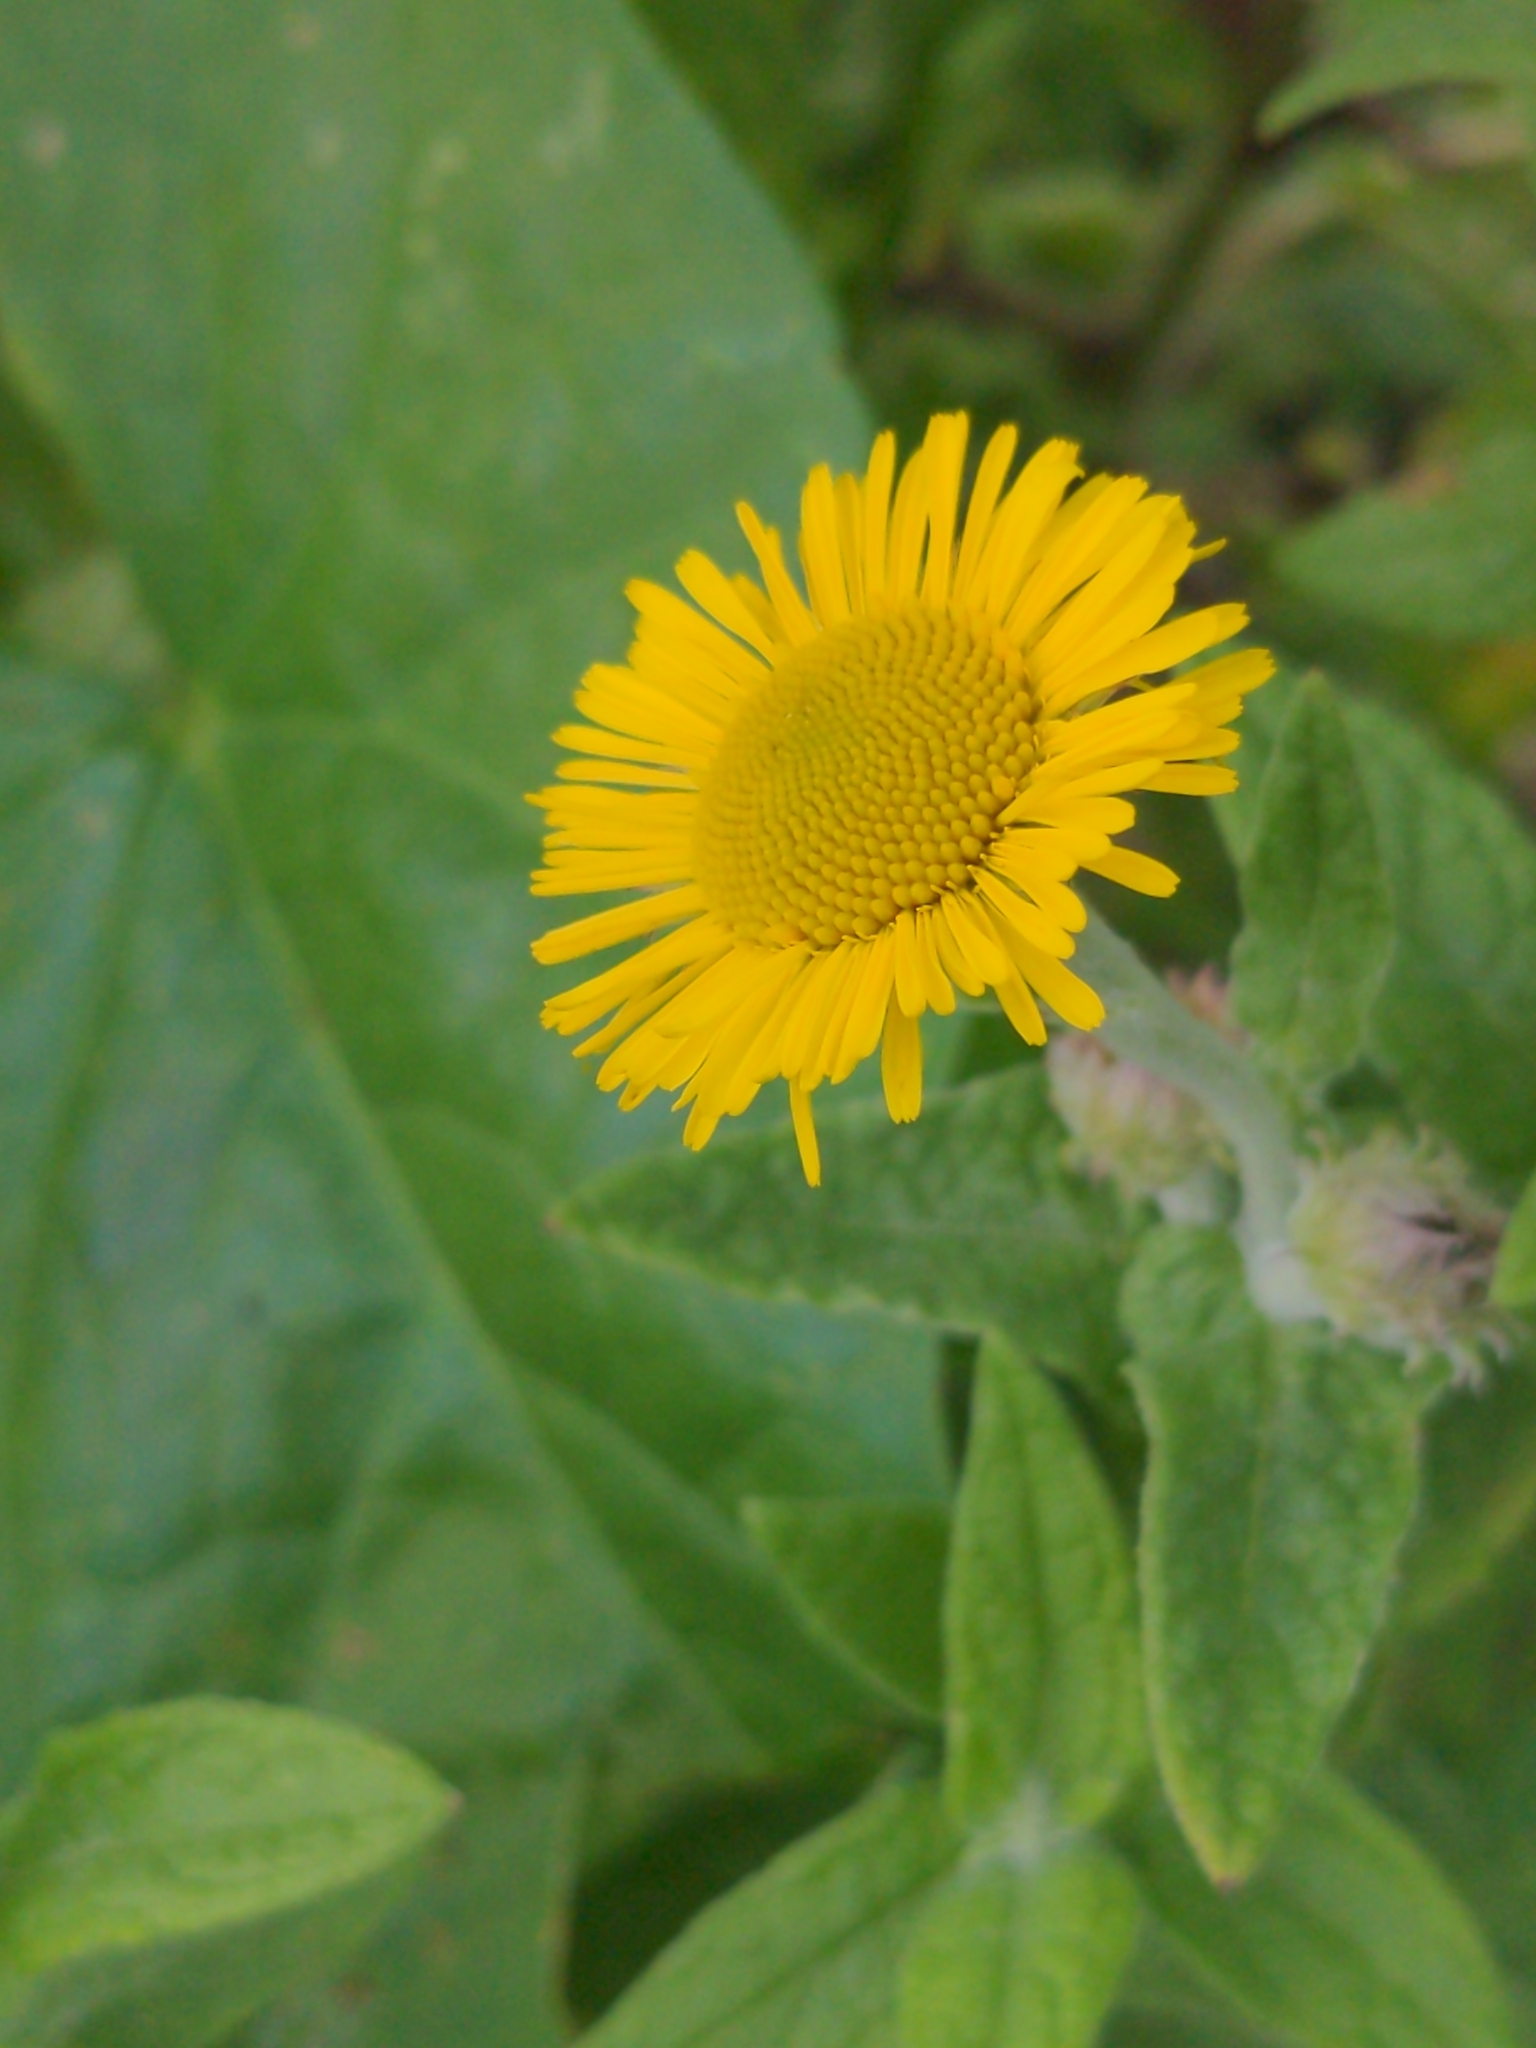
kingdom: Plantae
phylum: Tracheophyta
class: Magnoliopsida
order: Asterales
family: Asteraceae
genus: Pulicaria
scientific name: Pulicaria dysenterica
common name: Common fleabane
